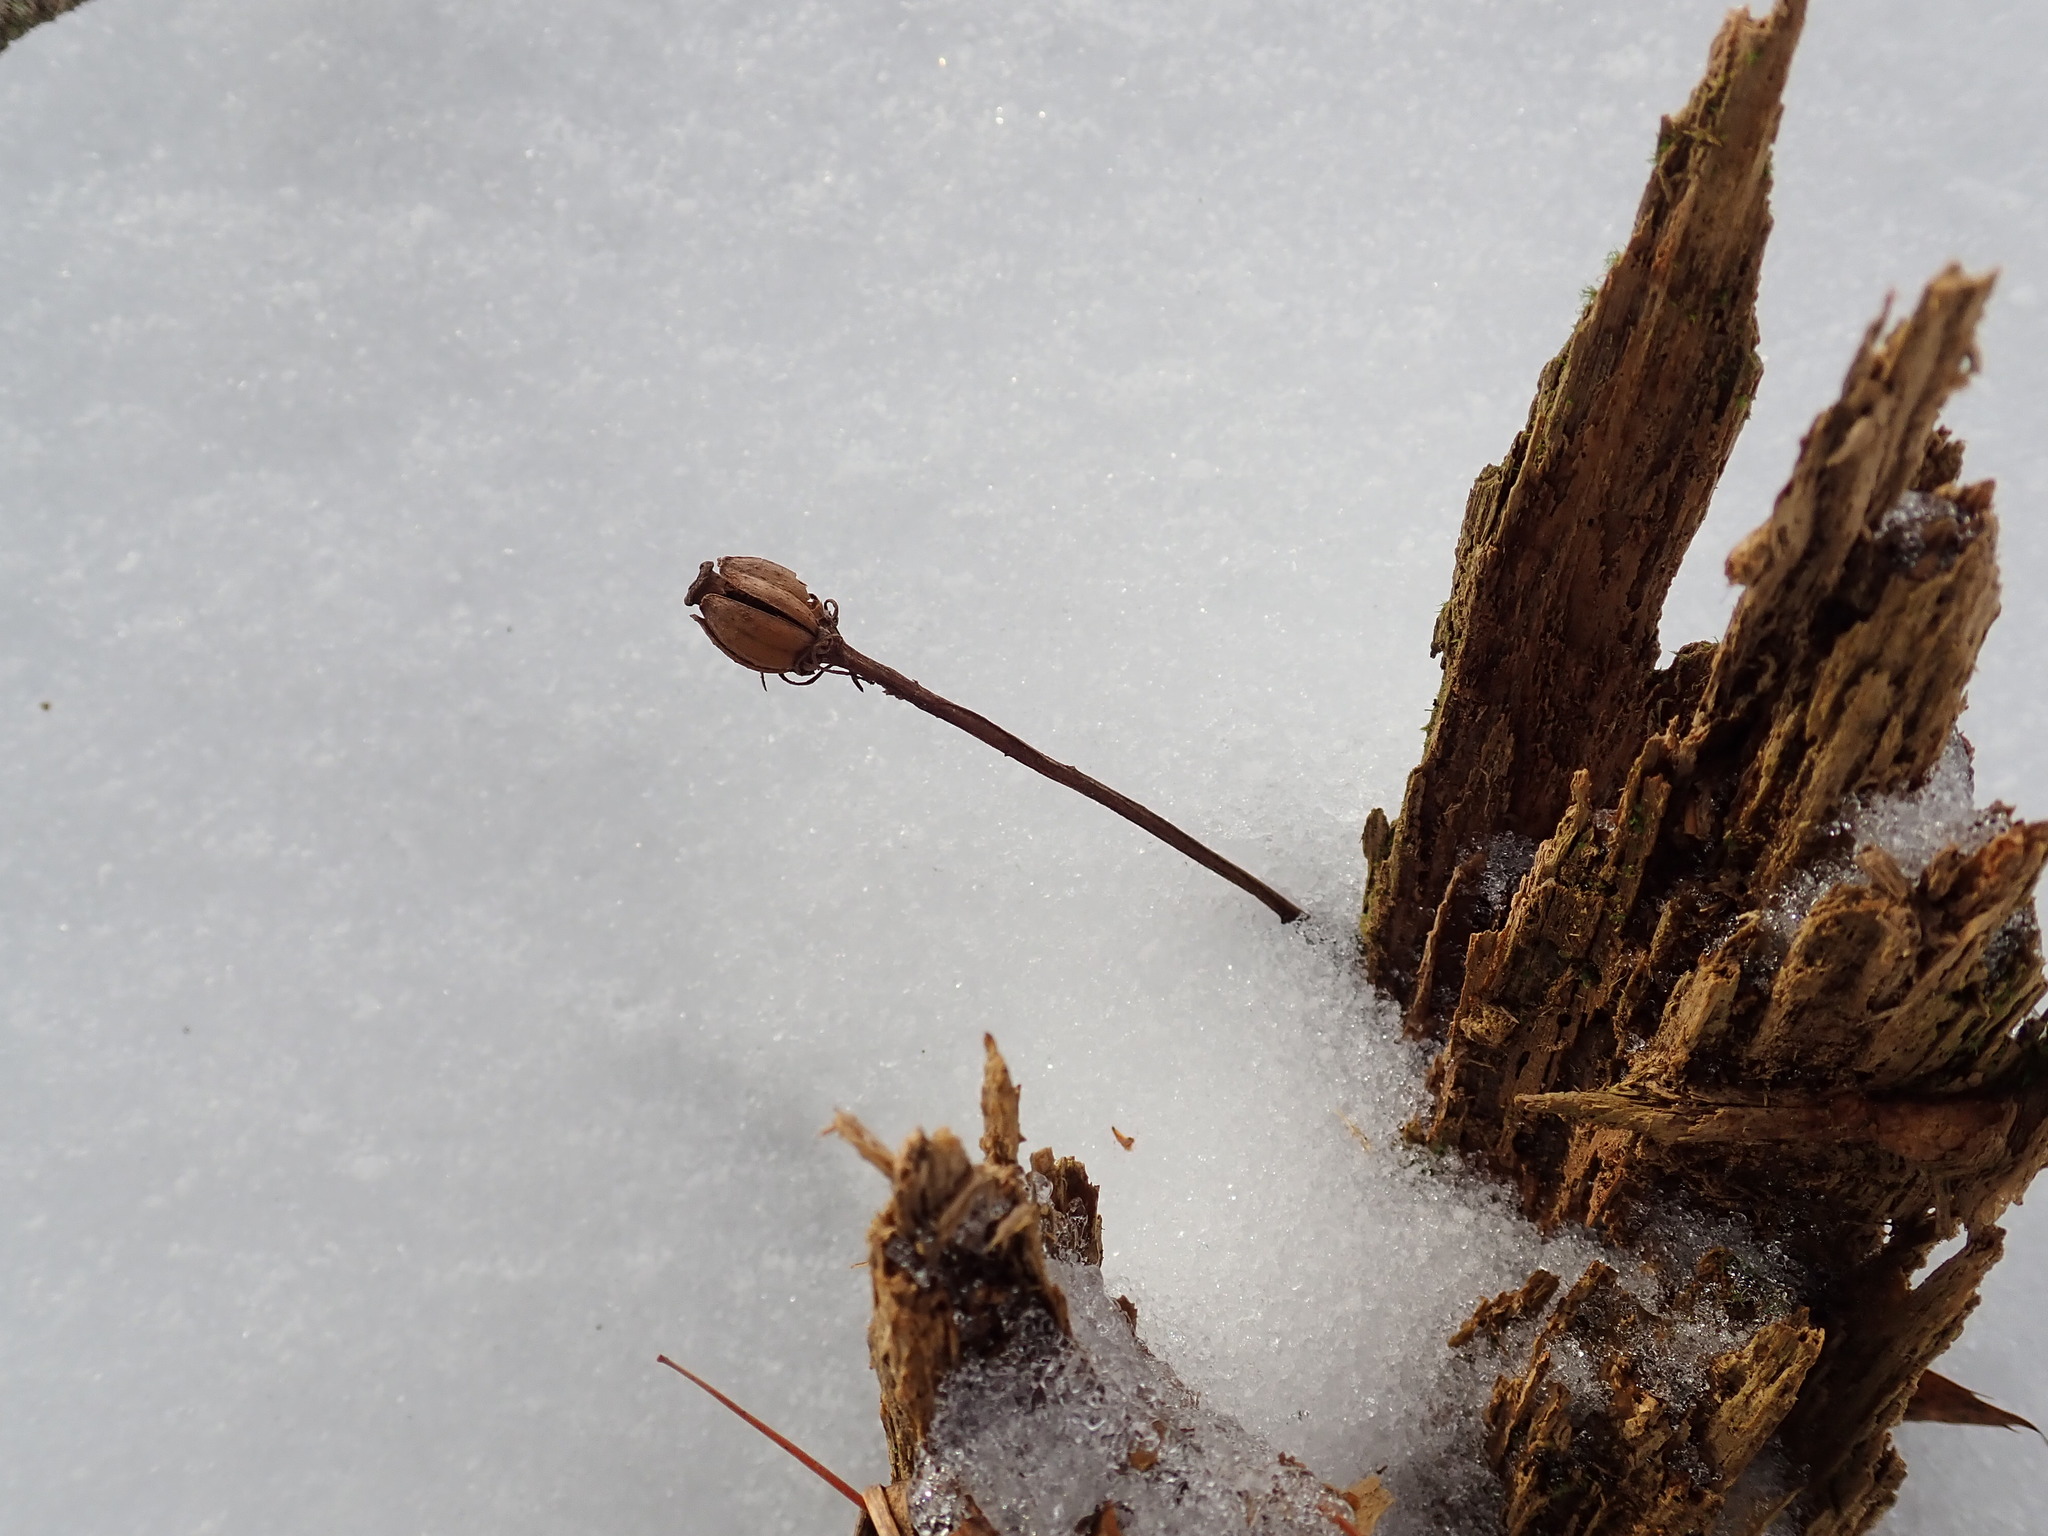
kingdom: Plantae
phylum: Tracheophyta
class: Magnoliopsida
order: Ericales
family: Ericaceae
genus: Monotropa
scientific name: Monotropa uniflora
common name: Convulsion root
